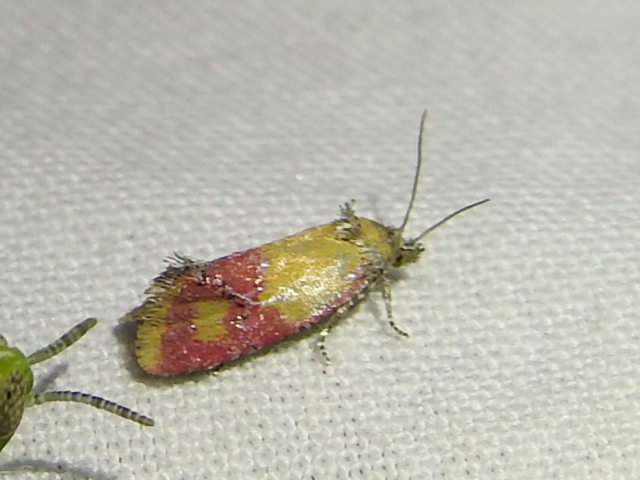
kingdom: Animalia
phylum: Arthropoda
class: Insecta
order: Lepidoptera
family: Tortricidae
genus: Conchylis
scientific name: Conchylis oenotherana
